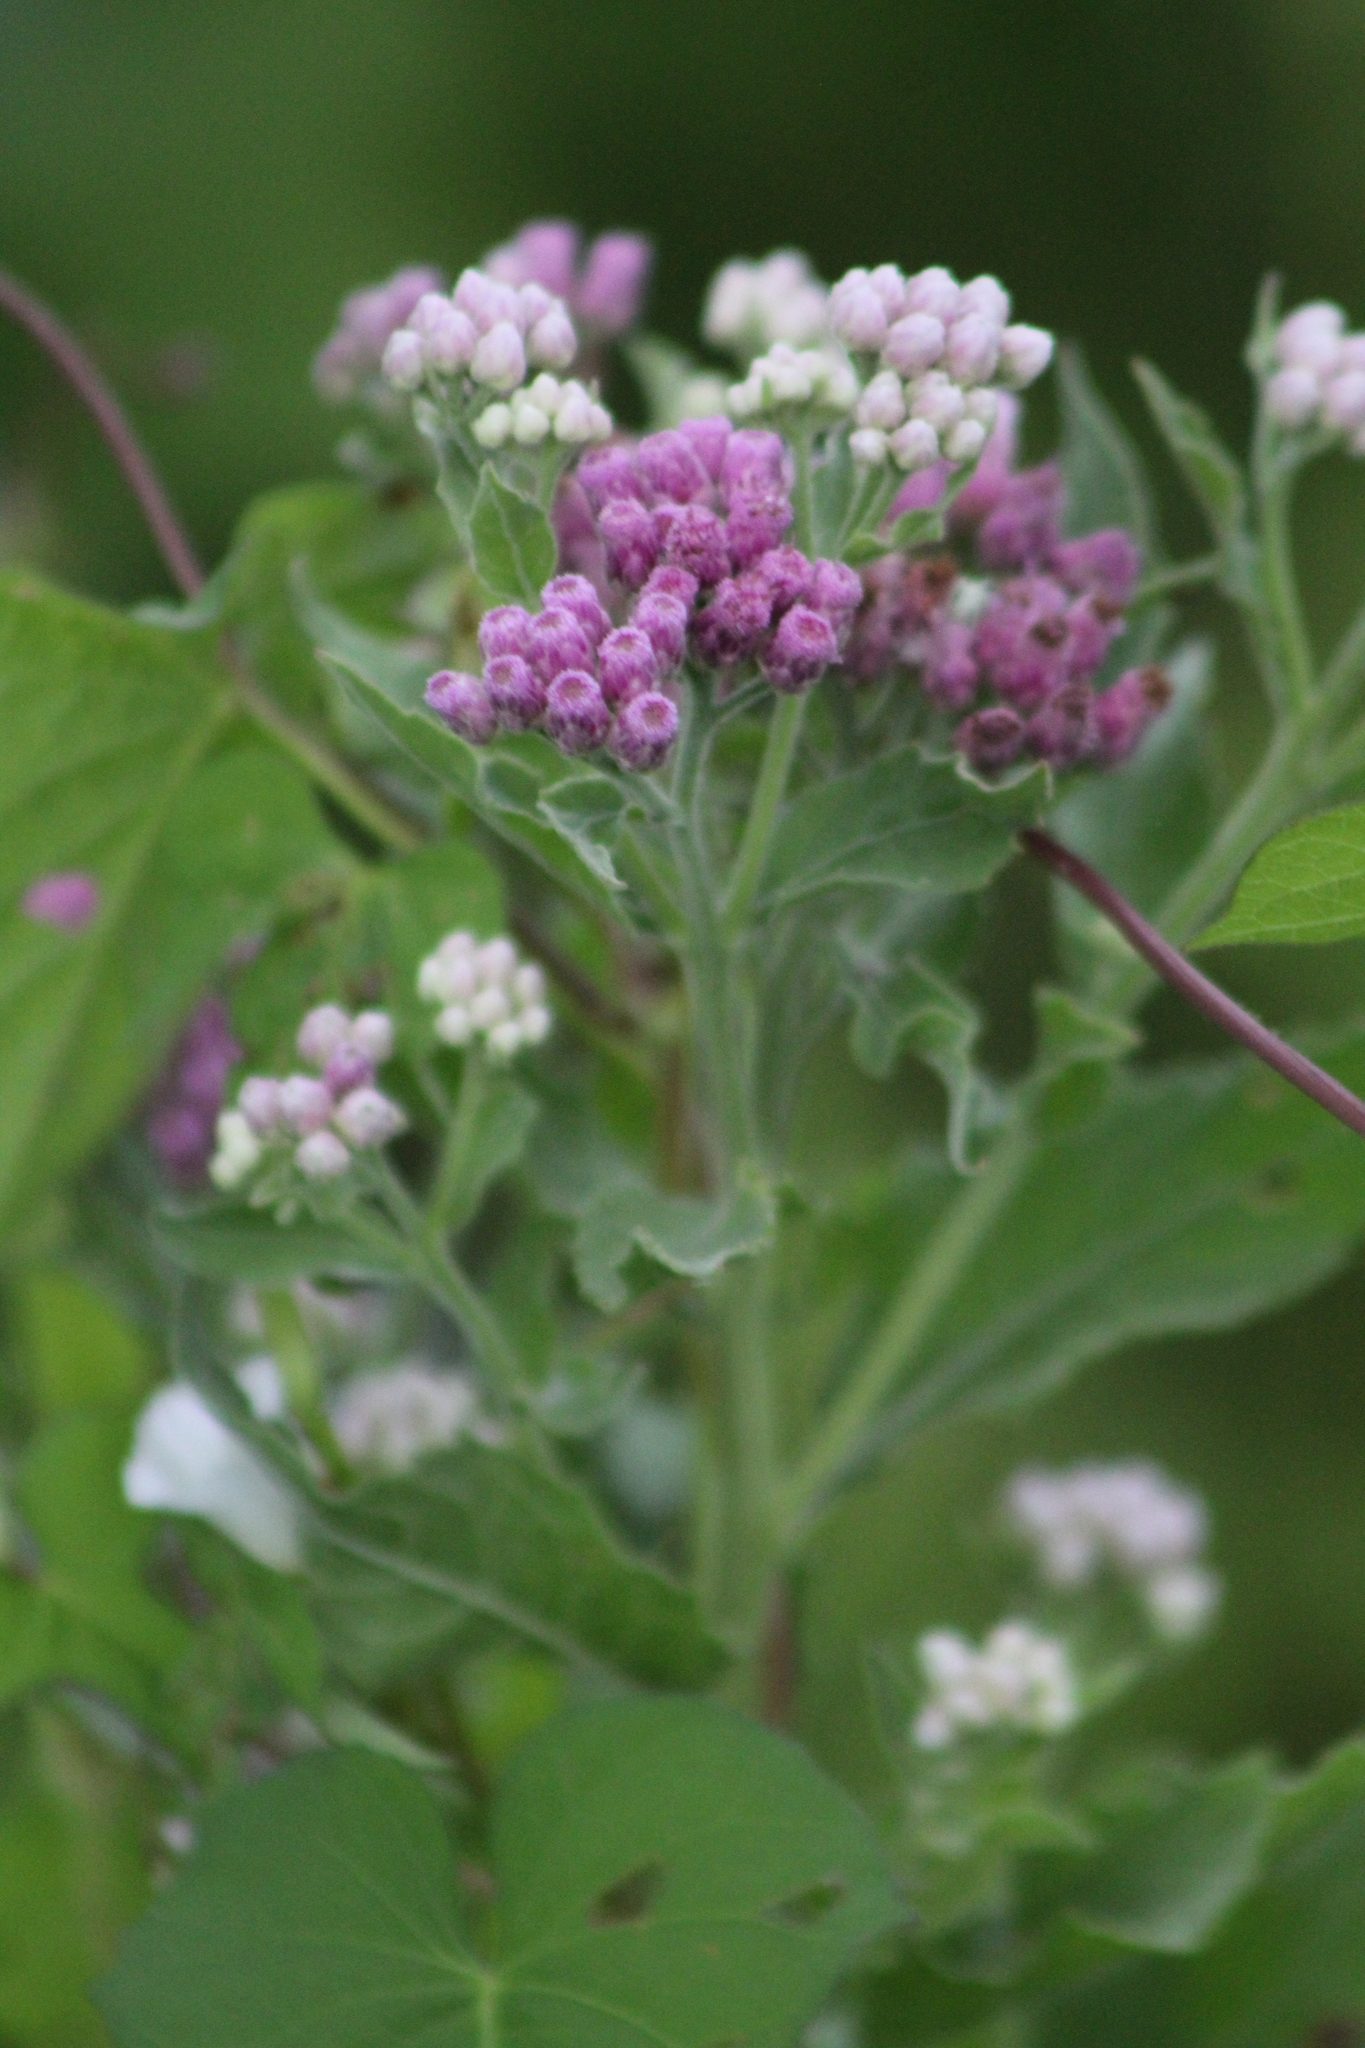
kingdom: Plantae
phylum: Tracheophyta
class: Magnoliopsida
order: Asterales
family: Asteraceae
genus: Pluchea
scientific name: Pluchea odorata
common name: Saltmarsh fleabane
